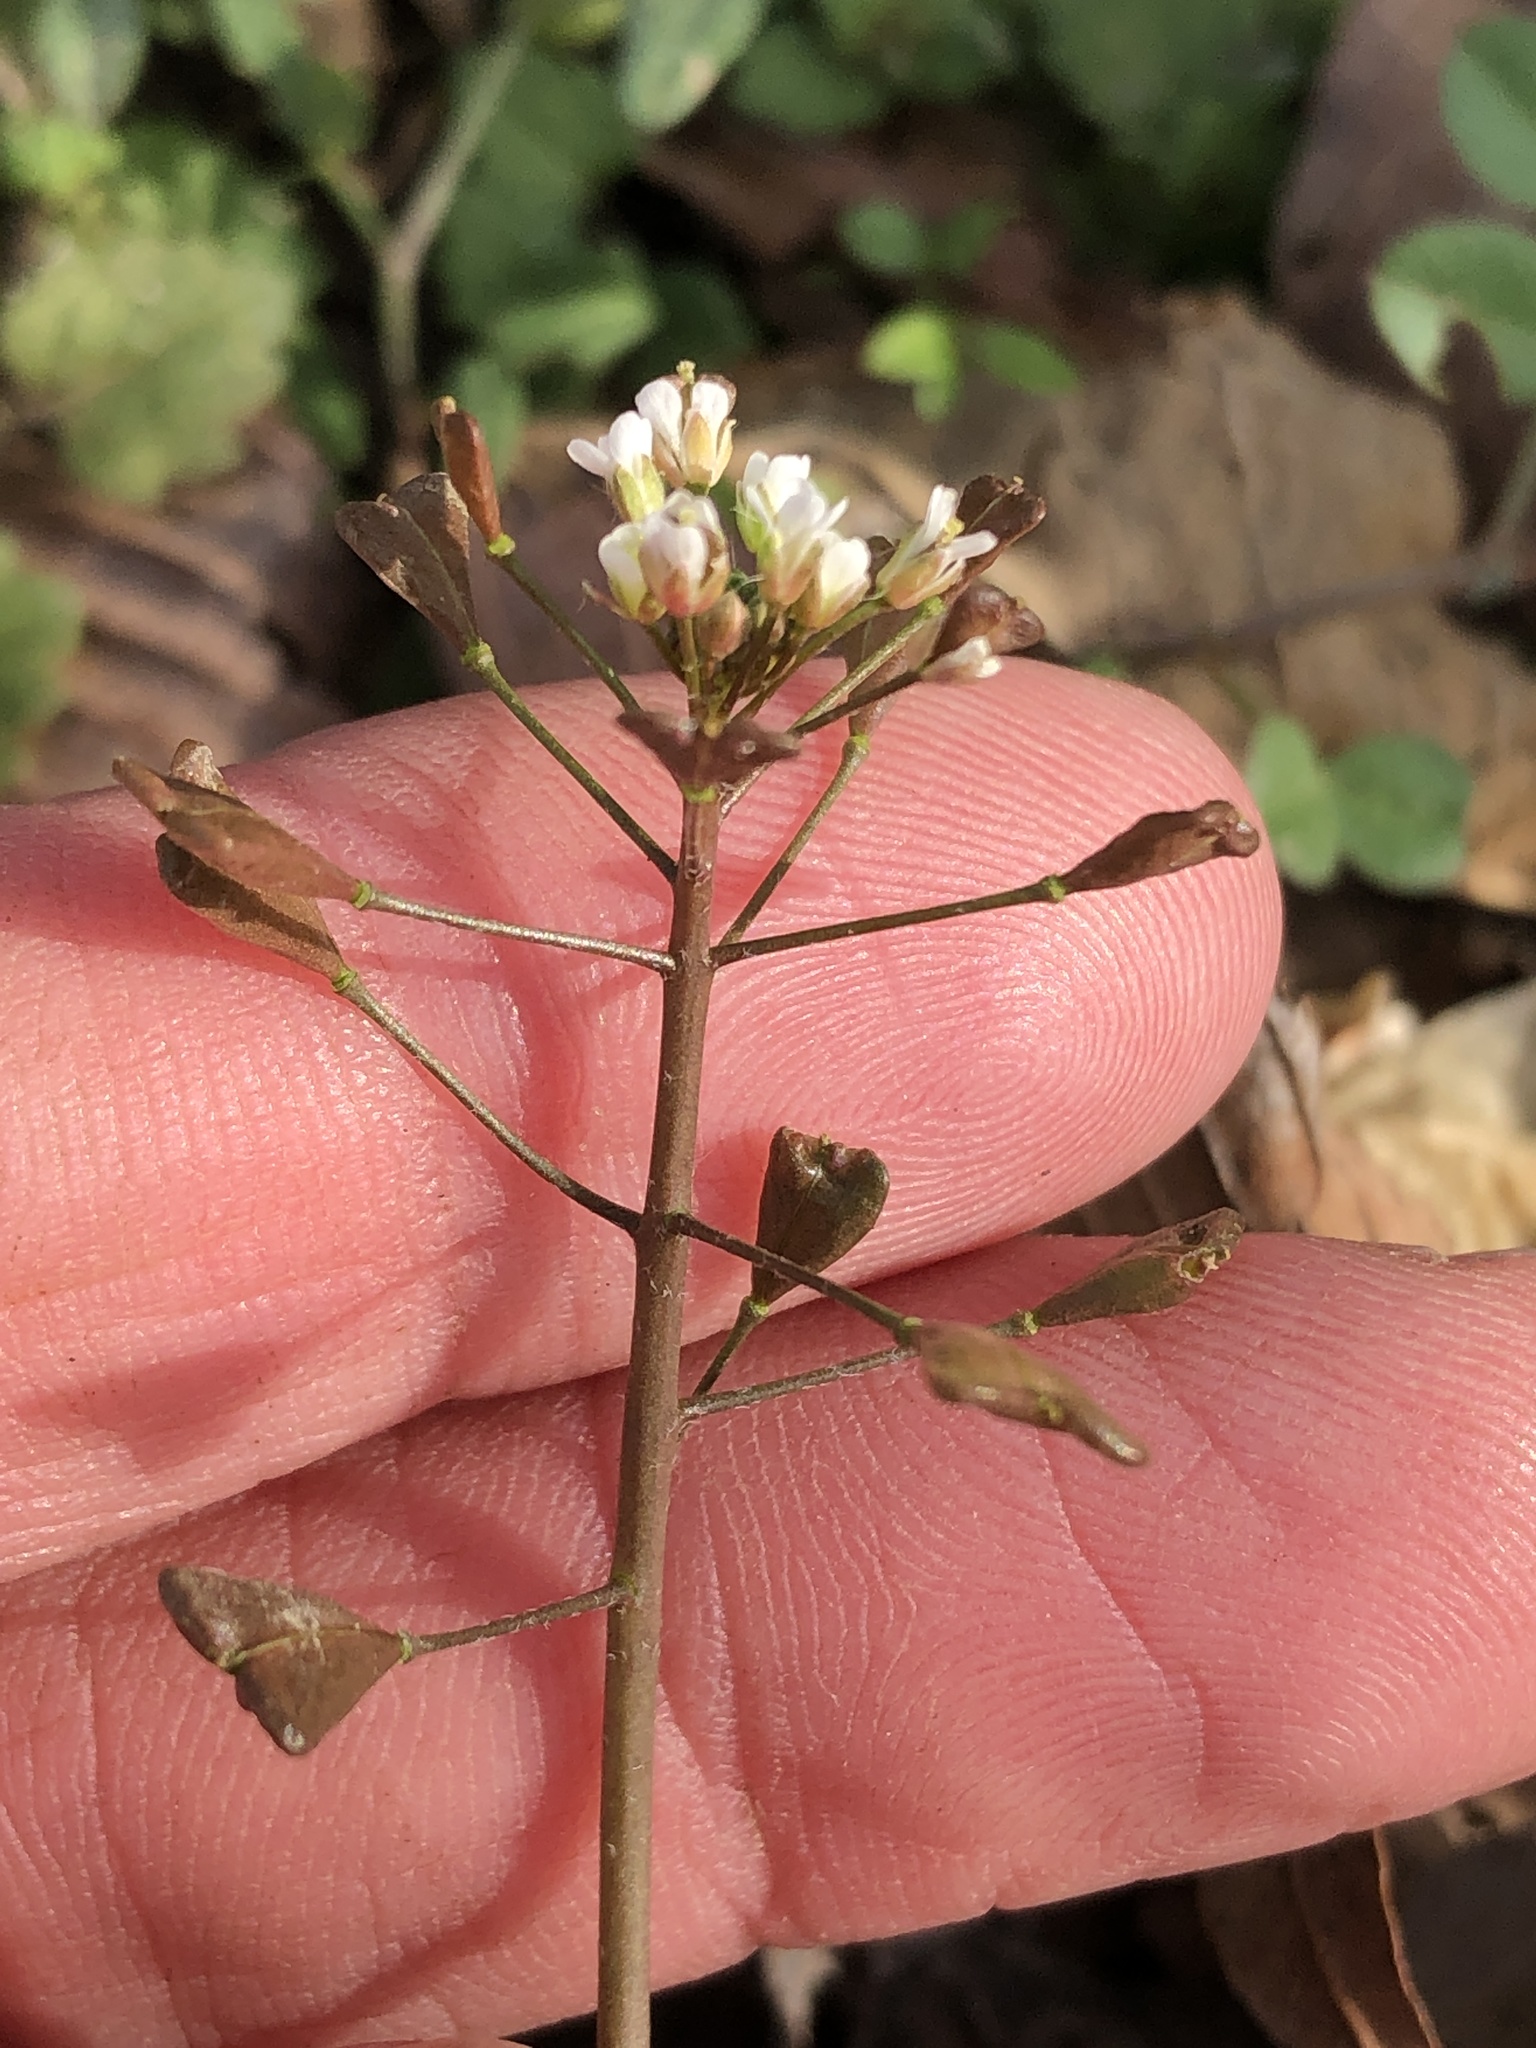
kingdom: Plantae
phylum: Tracheophyta
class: Magnoliopsida
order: Brassicales
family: Brassicaceae
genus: Capsella
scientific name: Capsella bursa-pastoris
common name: Shepherd's purse
